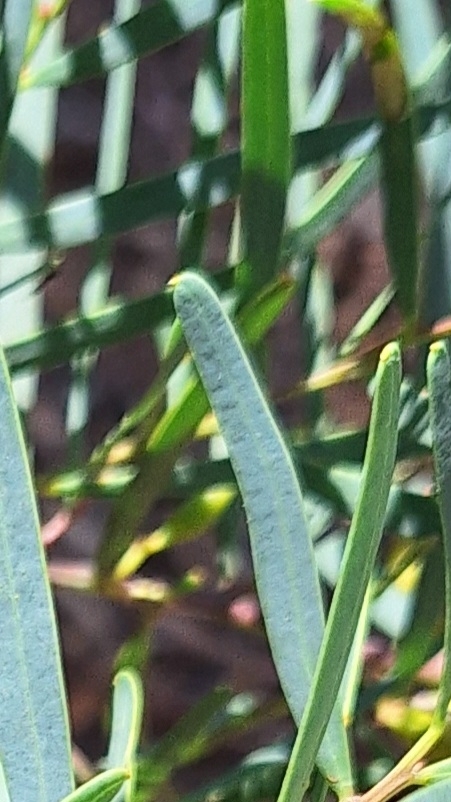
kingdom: Plantae
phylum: Tracheophyta
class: Magnoliopsida
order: Fabales
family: Fabaceae
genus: Acacia
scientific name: Acacia ligulata
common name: Dune wattle
